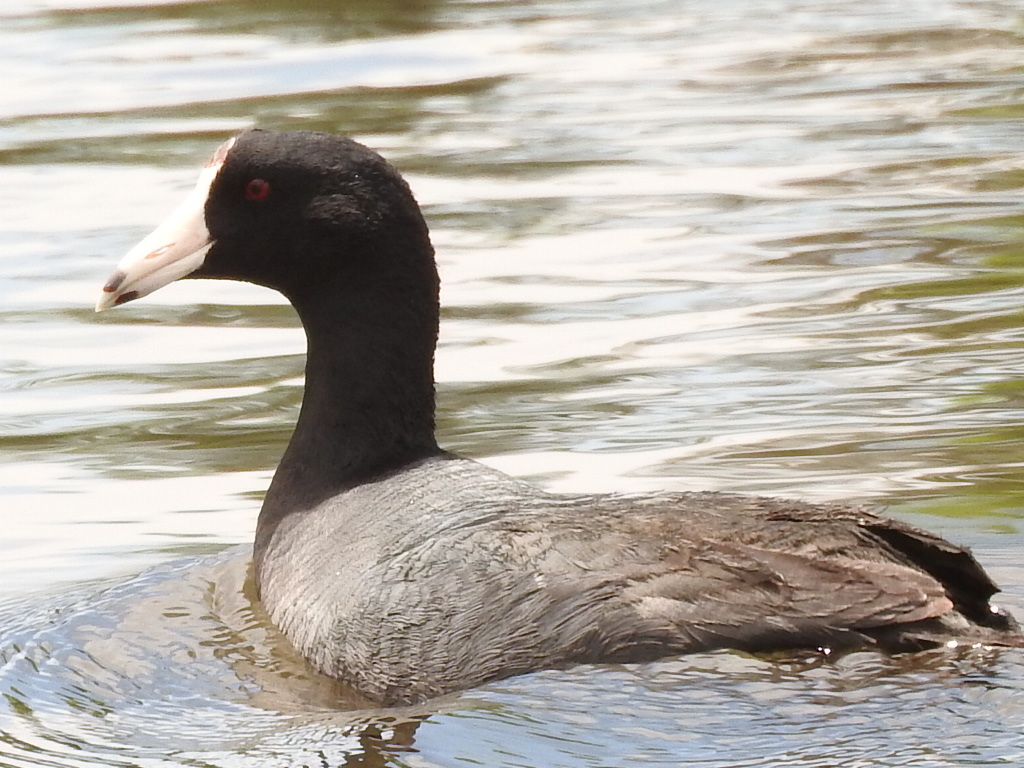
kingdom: Animalia
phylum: Chordata
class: Aves
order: Gruiformes
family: Rallidae
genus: Fulica
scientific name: Fulica americana
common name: American coot
